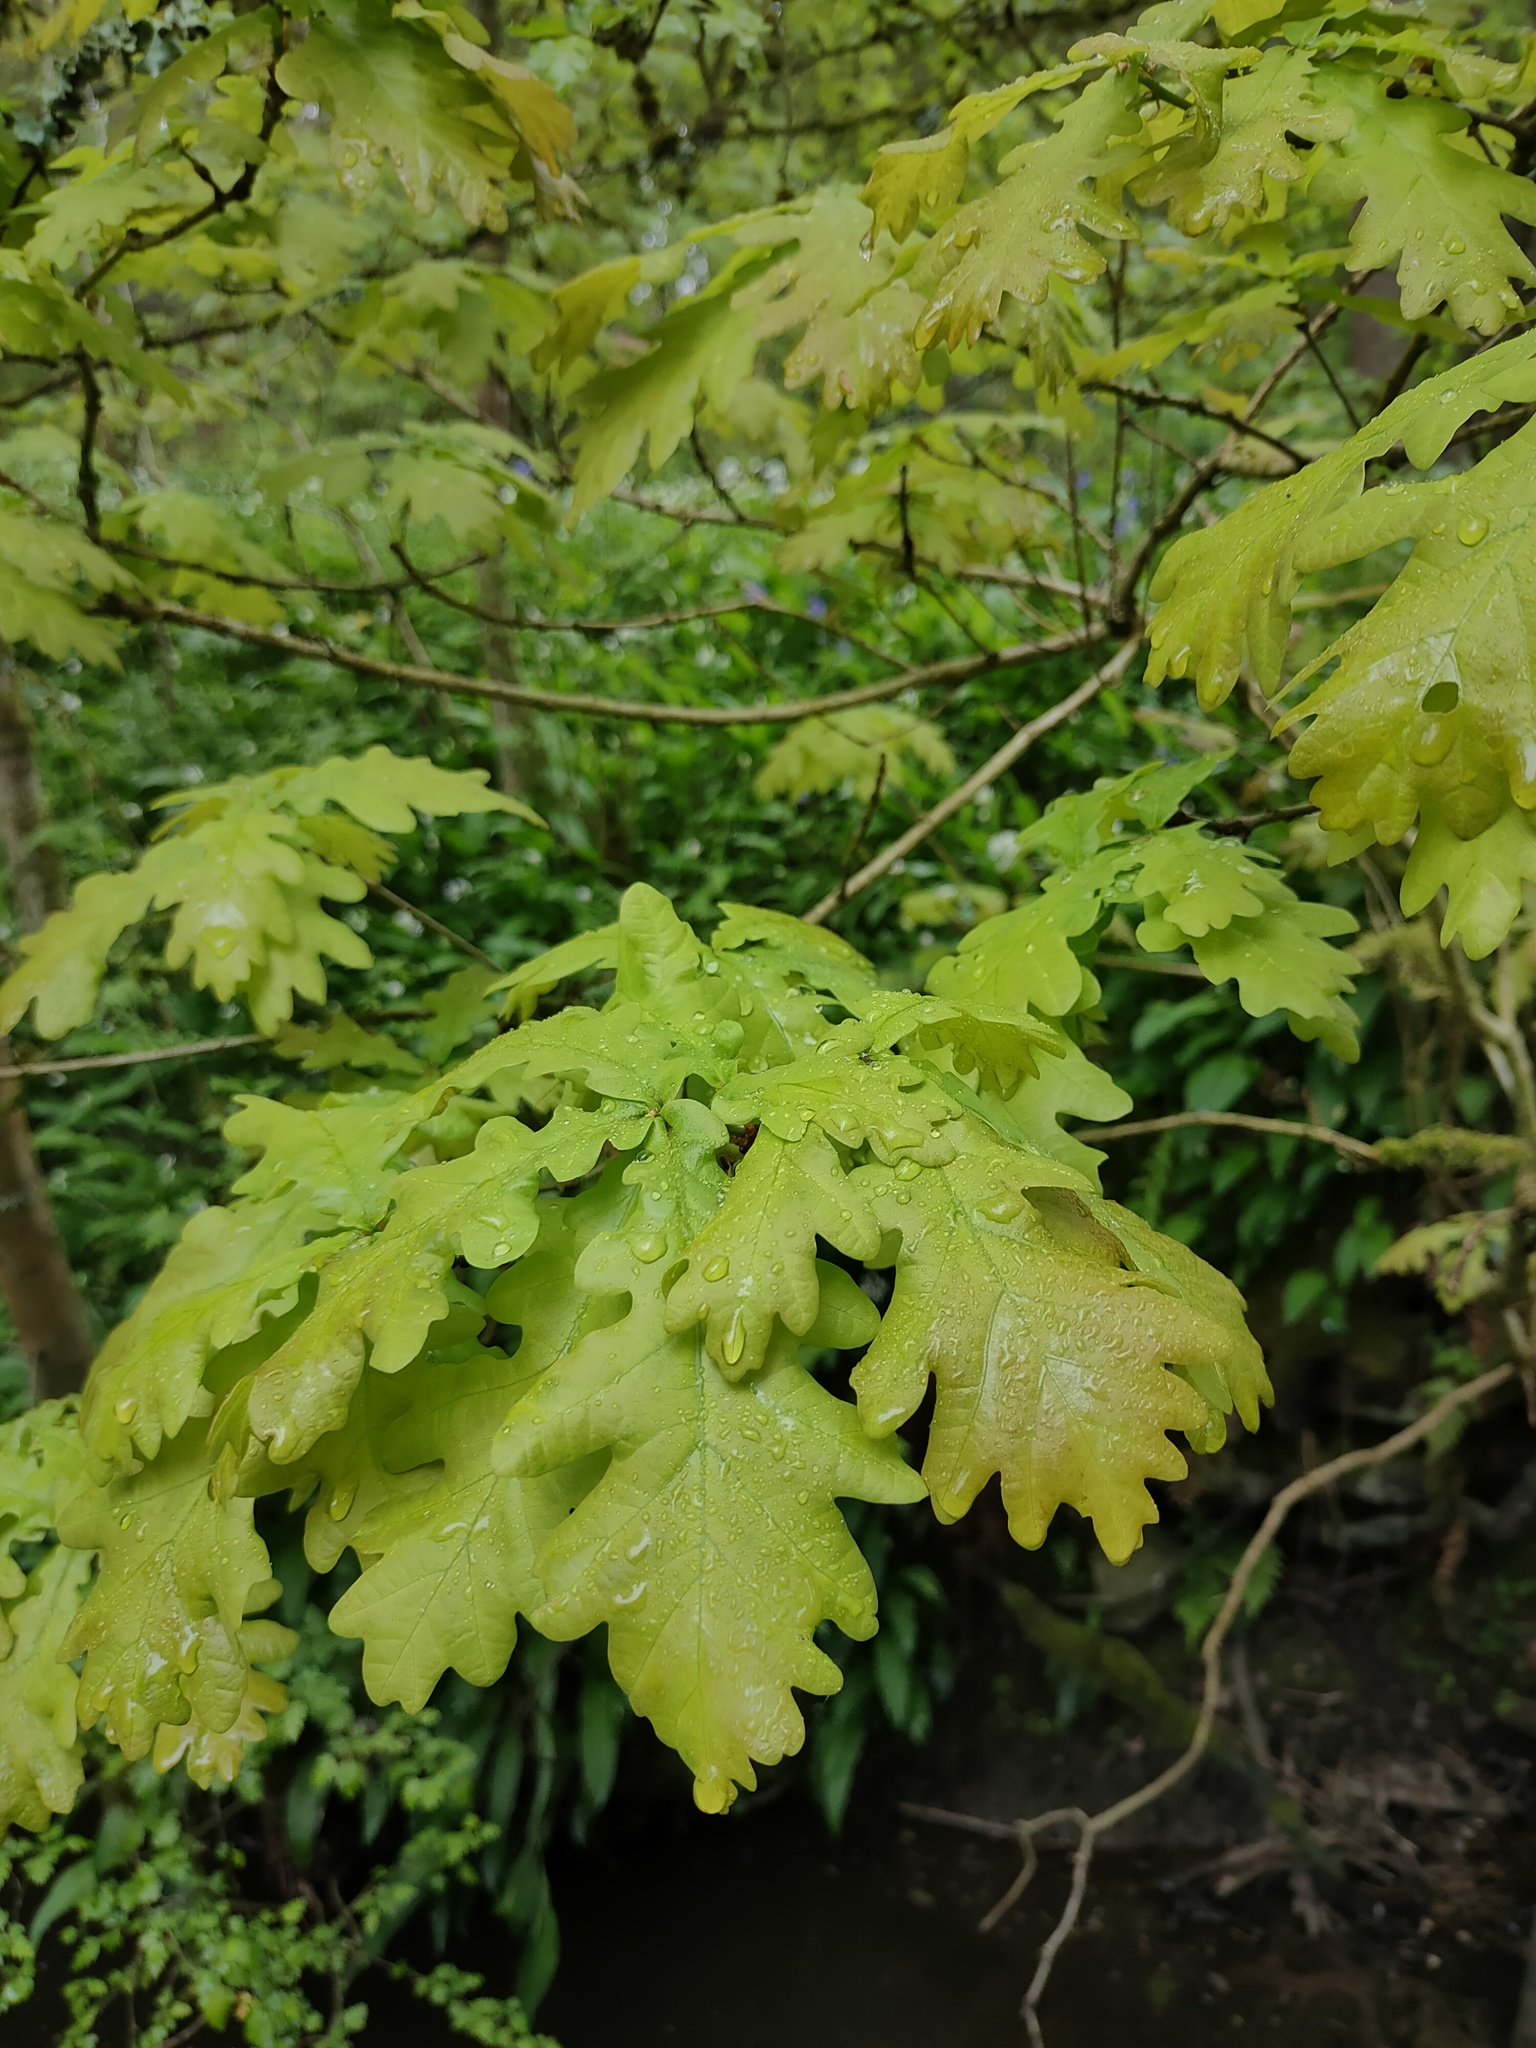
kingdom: Plantae
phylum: Tracheophyta
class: Magnoliopsida
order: Fagales
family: Fagaceae
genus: Quercus
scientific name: Quercus robur
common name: Pedunculate oak
